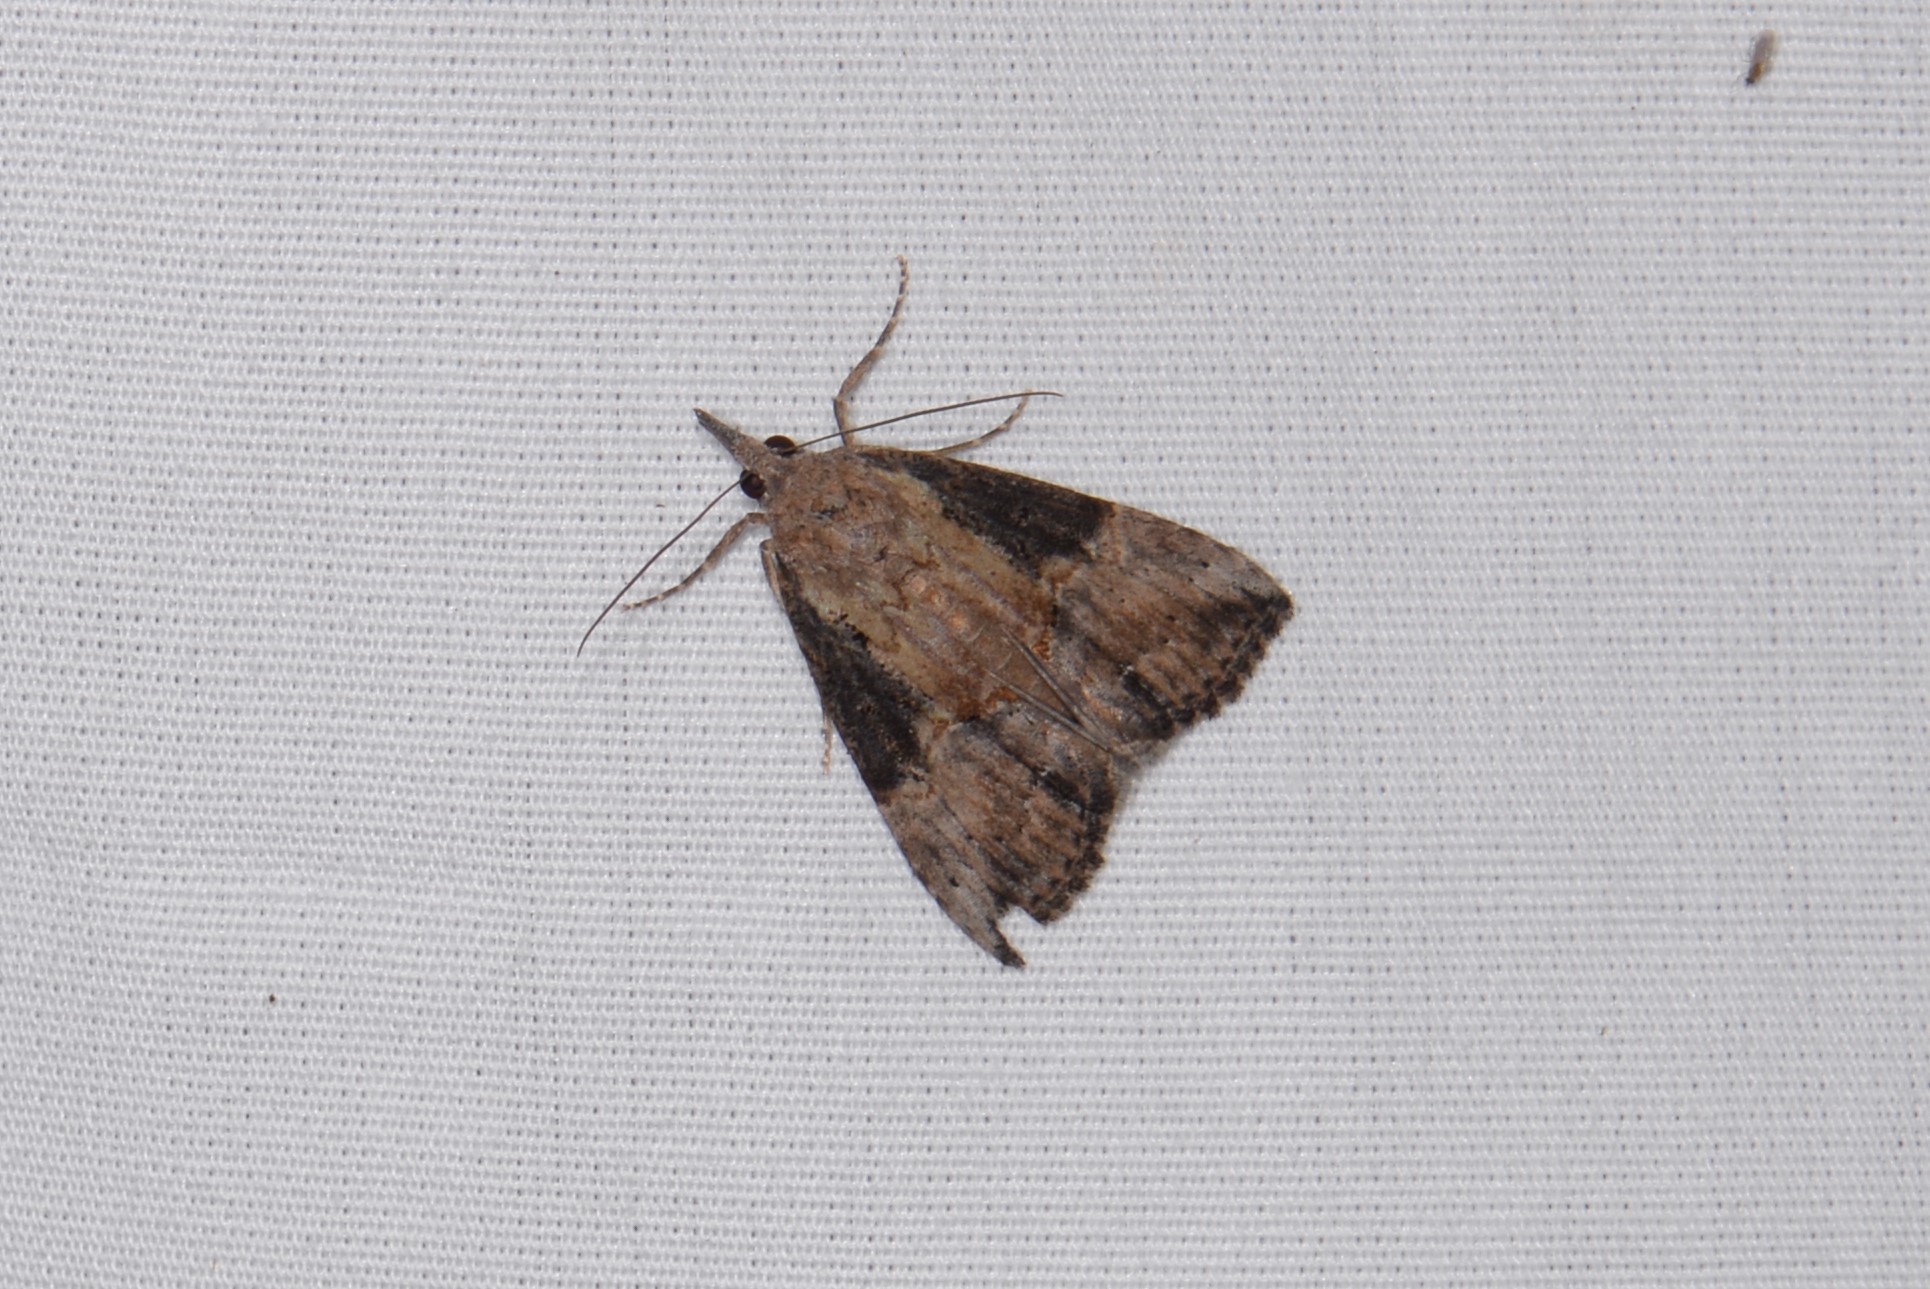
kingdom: Animalia
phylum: Arthropoda
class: Insecta
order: Lepidoptera
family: Erebidae
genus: Hypena
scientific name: Hypena scabra
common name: Green cloverworm
